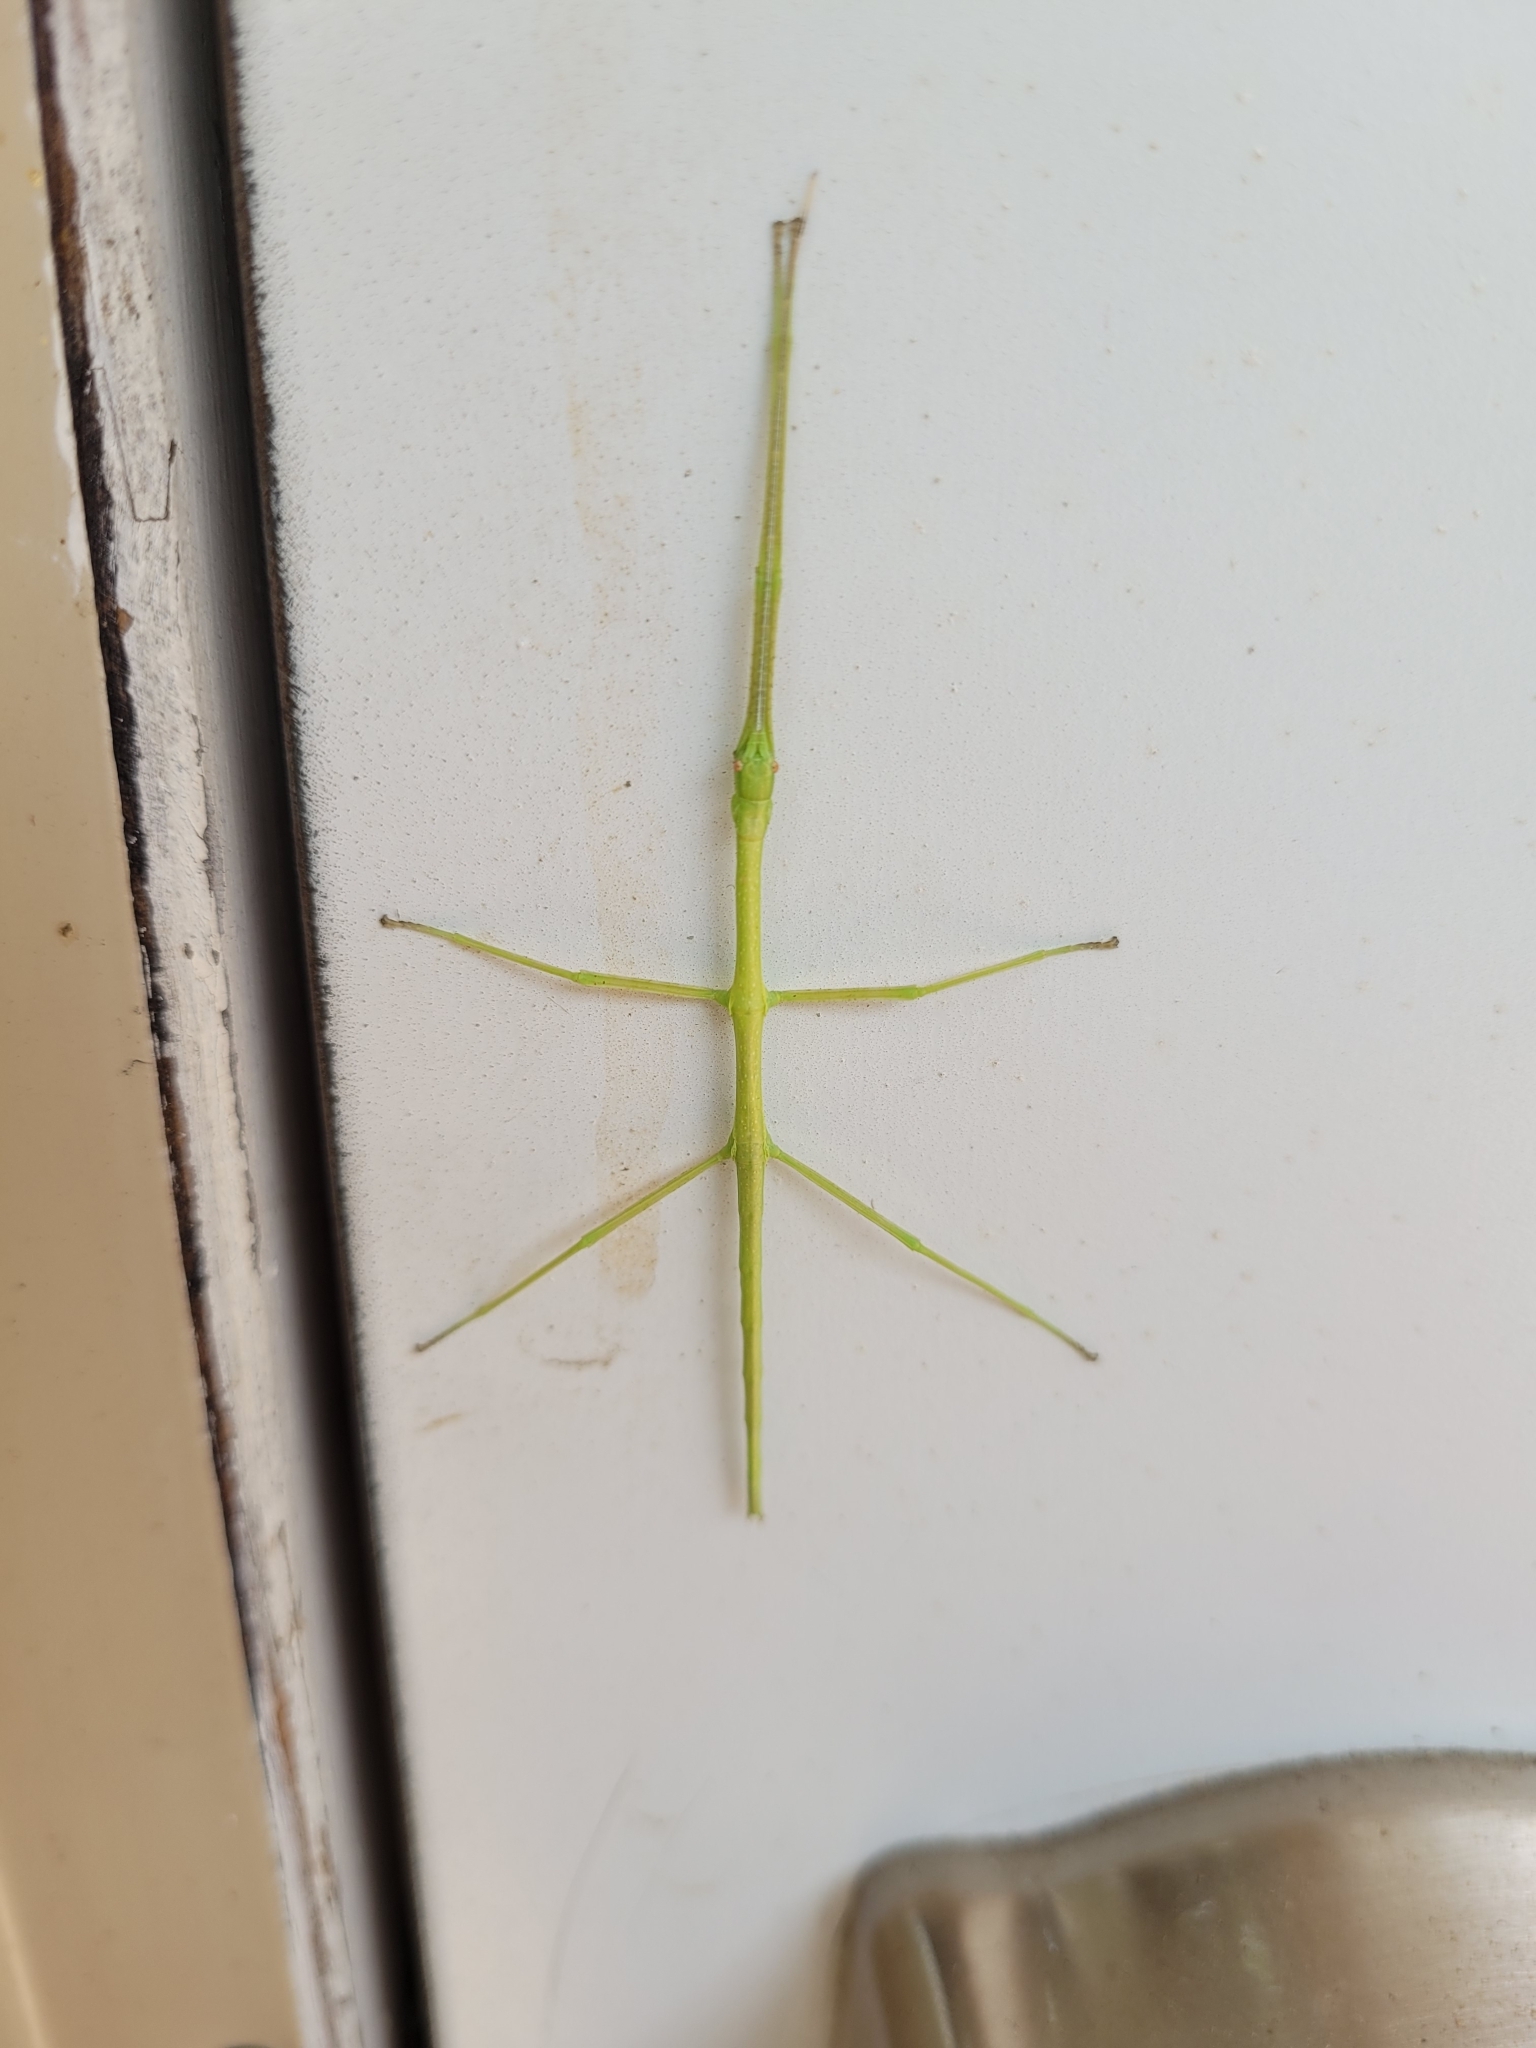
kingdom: Animalia
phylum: Arthropoda
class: Insecta
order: Phasmida
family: Diapheromeridae
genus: Diapheromera
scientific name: Diapheromera femorata
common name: Common american walkingstick
